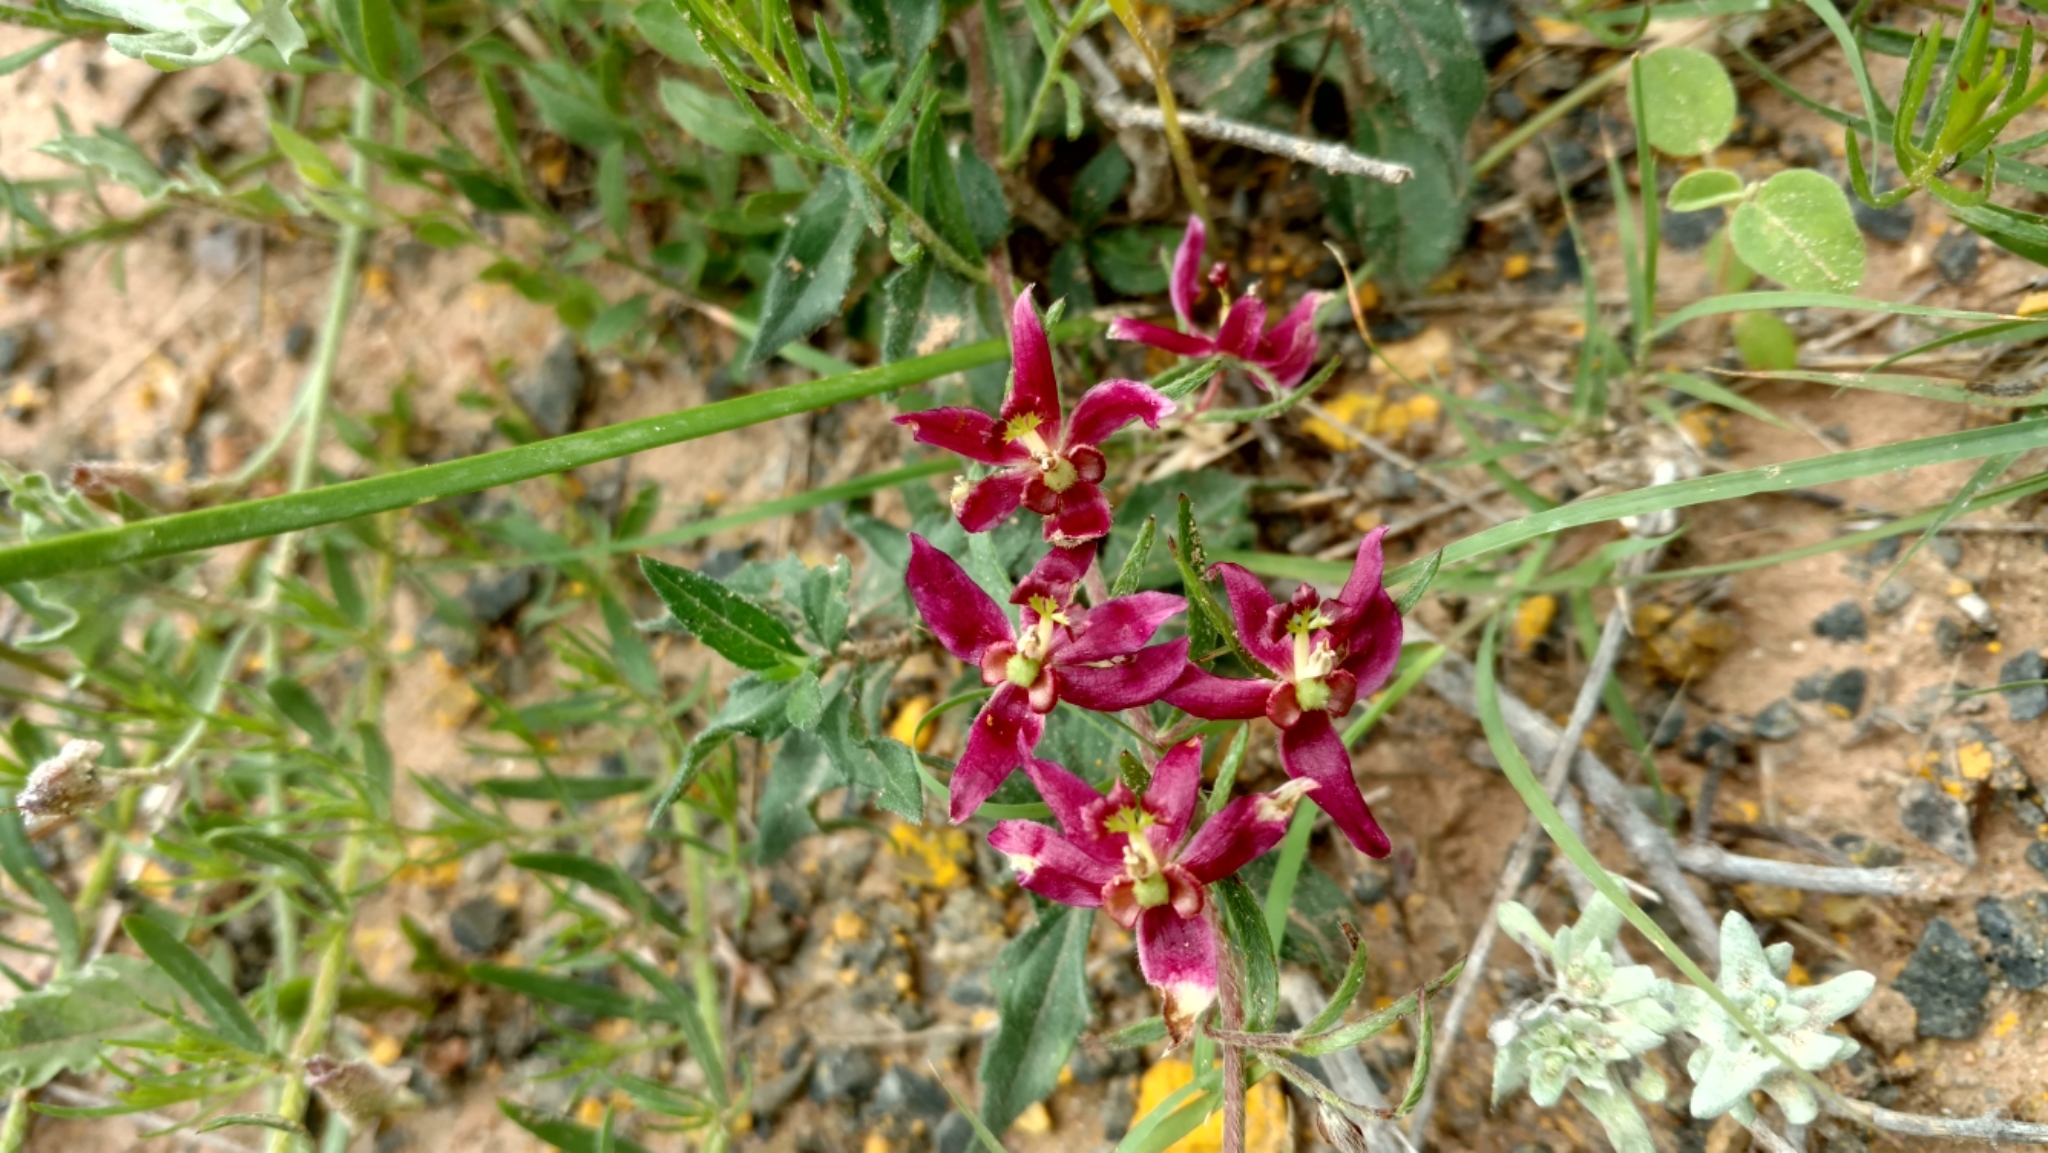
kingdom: Plantae
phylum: Tracheophyta
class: Magnoliopsida
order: Zygophyllales
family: Krameriaceae
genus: Krameria
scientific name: Krameria lanceolata
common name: Ratany
